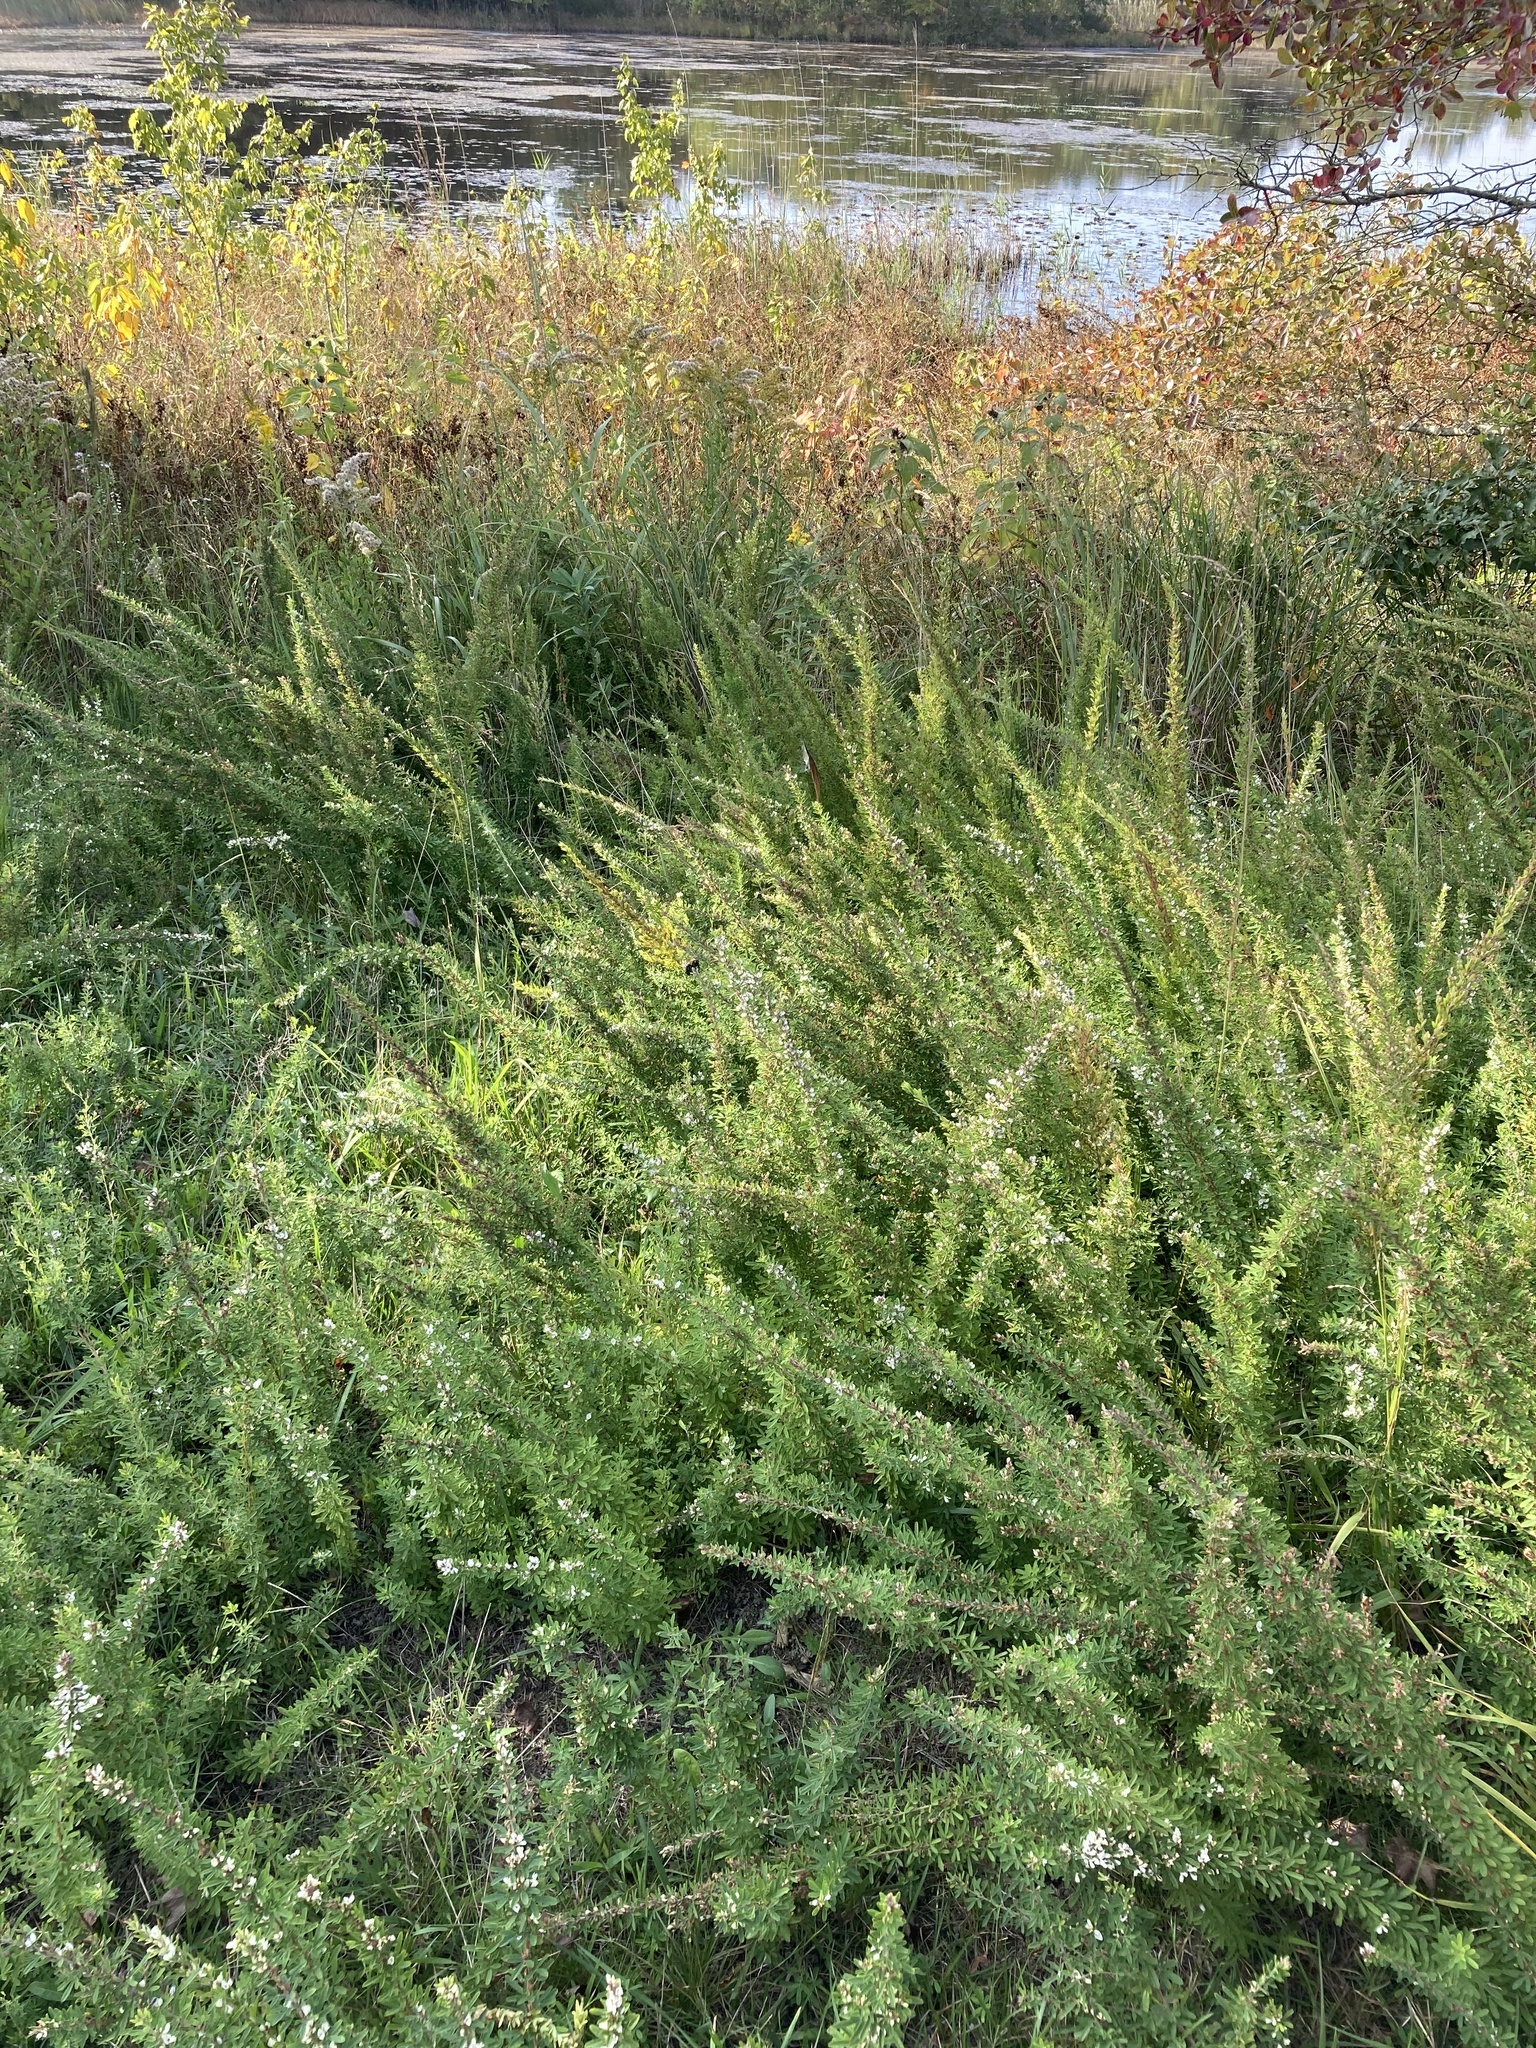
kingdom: Plantae
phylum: Tracheophyta
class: Magnoliopsida
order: Fabales
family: Fabaceae
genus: Lespedeza
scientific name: Lespedeza cuneata
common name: Chinese bush-clover
